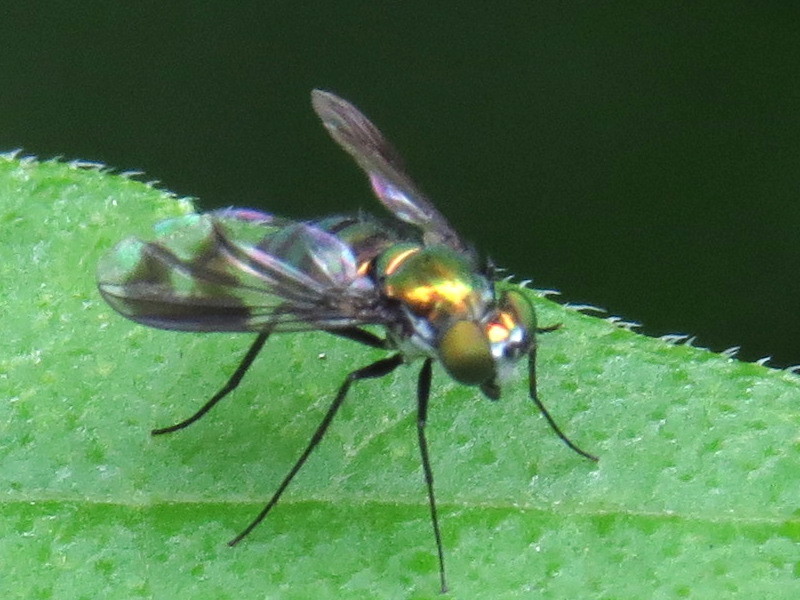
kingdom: Animalia
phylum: Arthropoda
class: Insecta
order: Diptera
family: Dolichopodidae
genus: Condylostylus
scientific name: Condylostylus patibulatus
